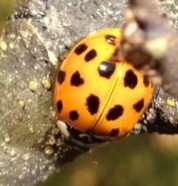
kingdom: Animalia
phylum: Arthropoda
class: Insecta
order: Coleoptera
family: Coccinellidae
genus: Harmonia
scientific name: Harmonia axyridis
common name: Harlequin ladybird
